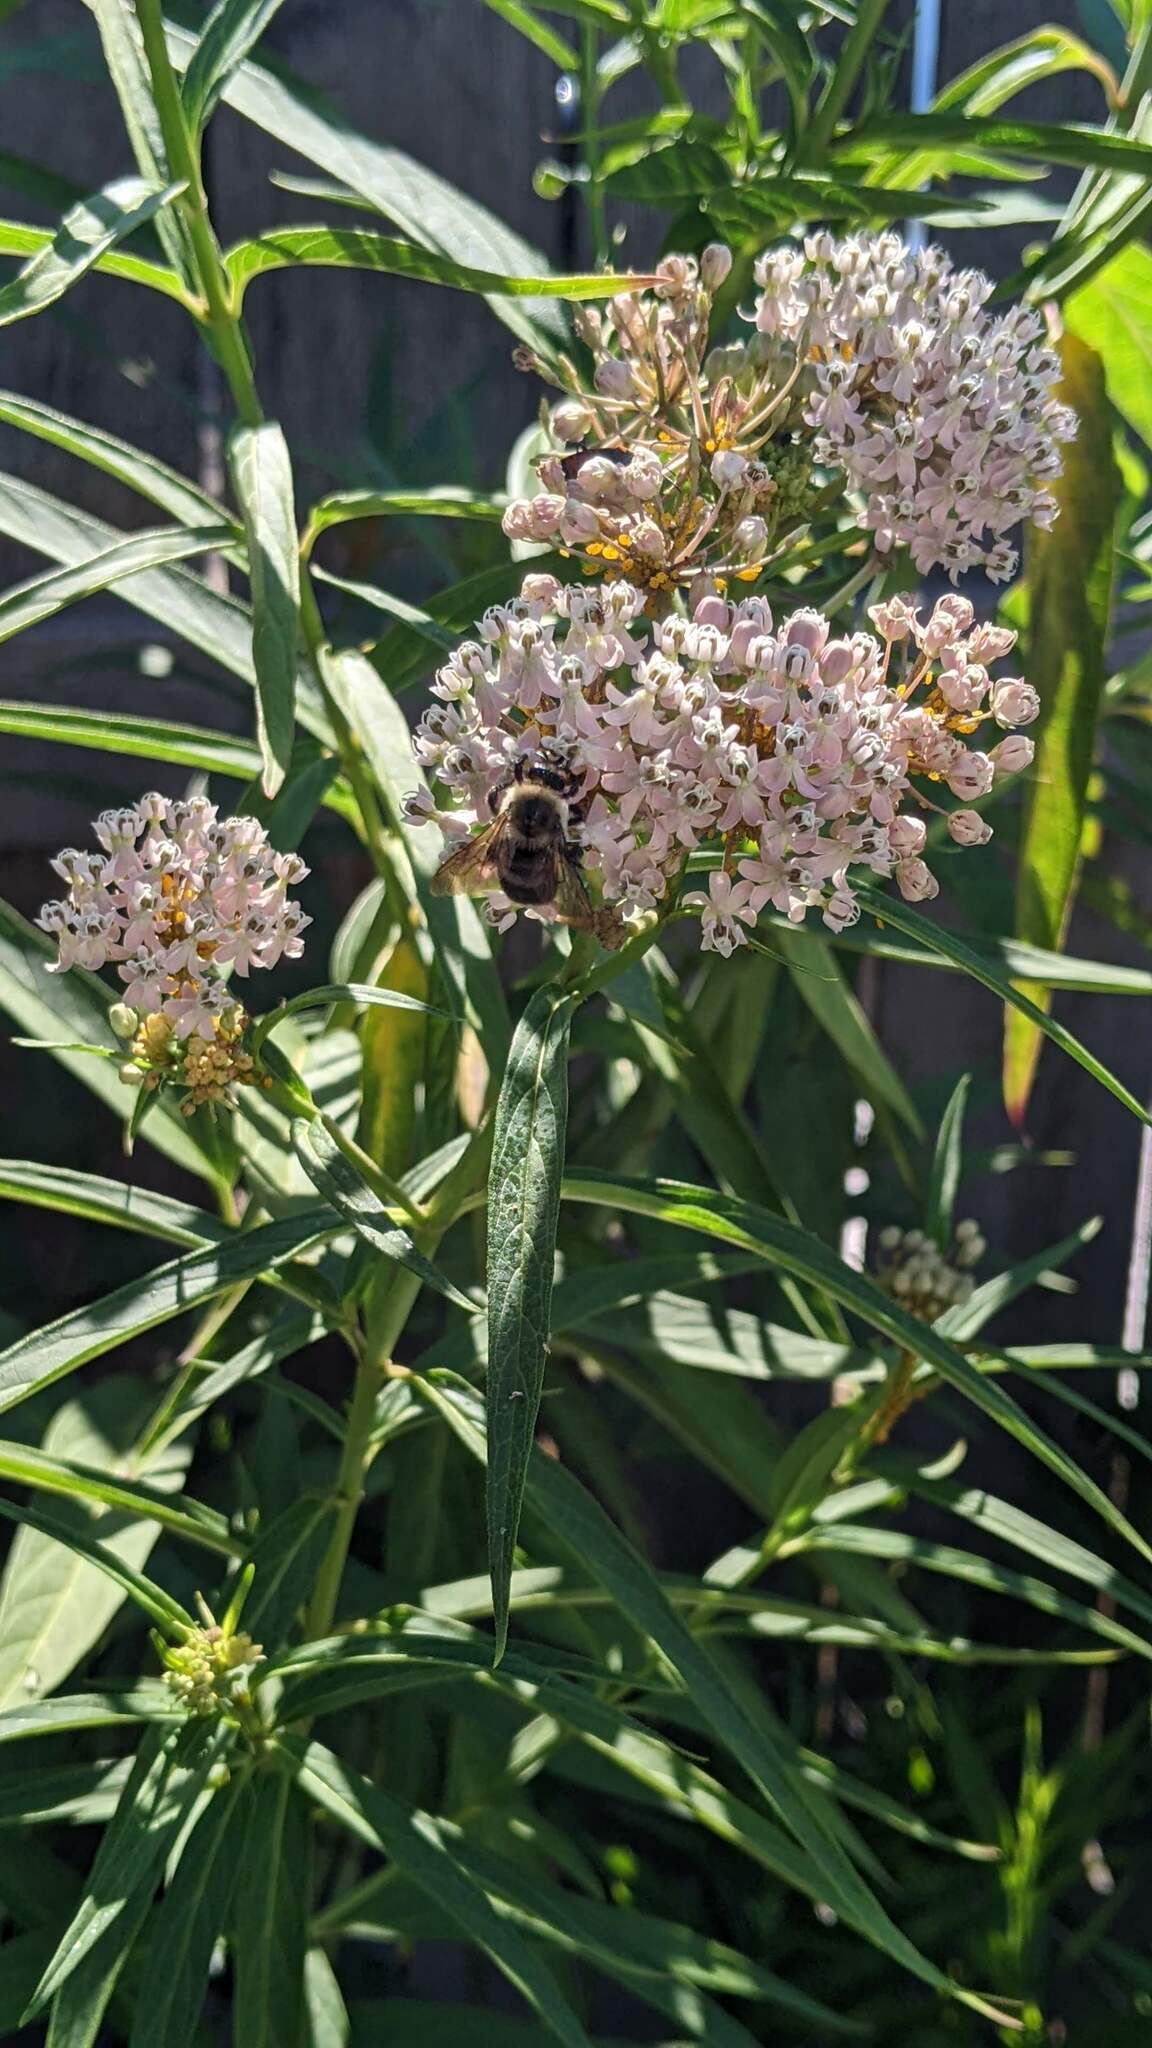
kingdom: Animalia
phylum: Arthropoda
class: Insecta
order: Hymenoptera
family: Apidae
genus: Bombus
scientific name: Bombus griseocollis
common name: Brown-belted bumble bee
